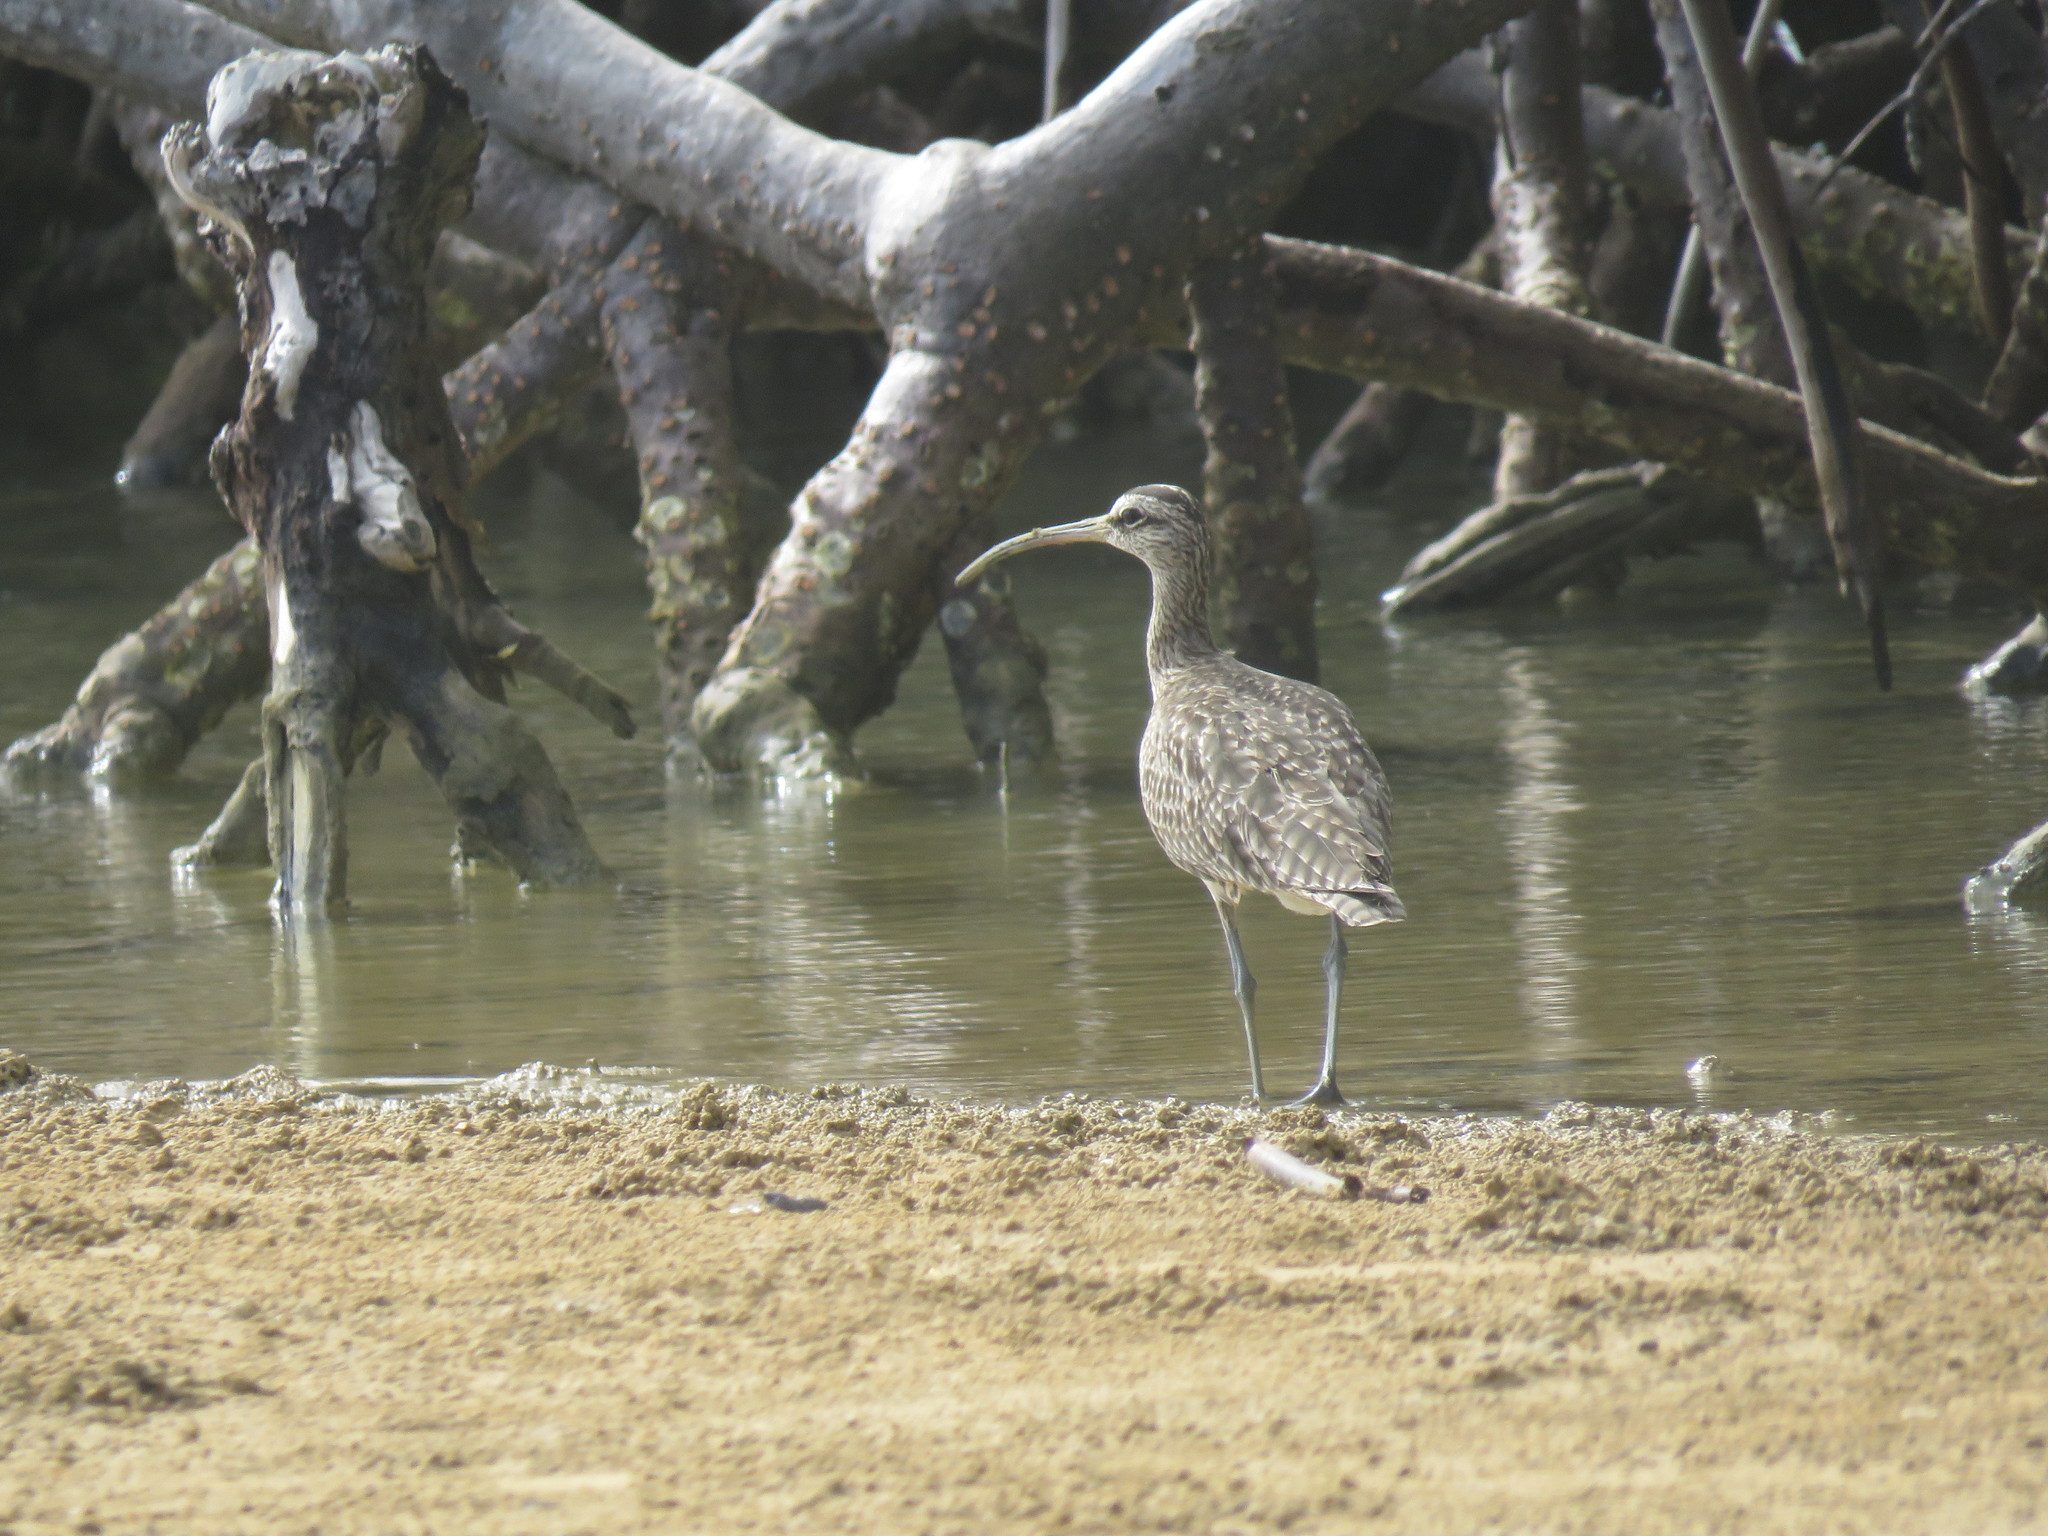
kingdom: Animalia
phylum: Chordata
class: Aves
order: Charadriiformes
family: Scolopacidae
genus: Numenius
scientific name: Numenius phaeopus
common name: Whimbrel
